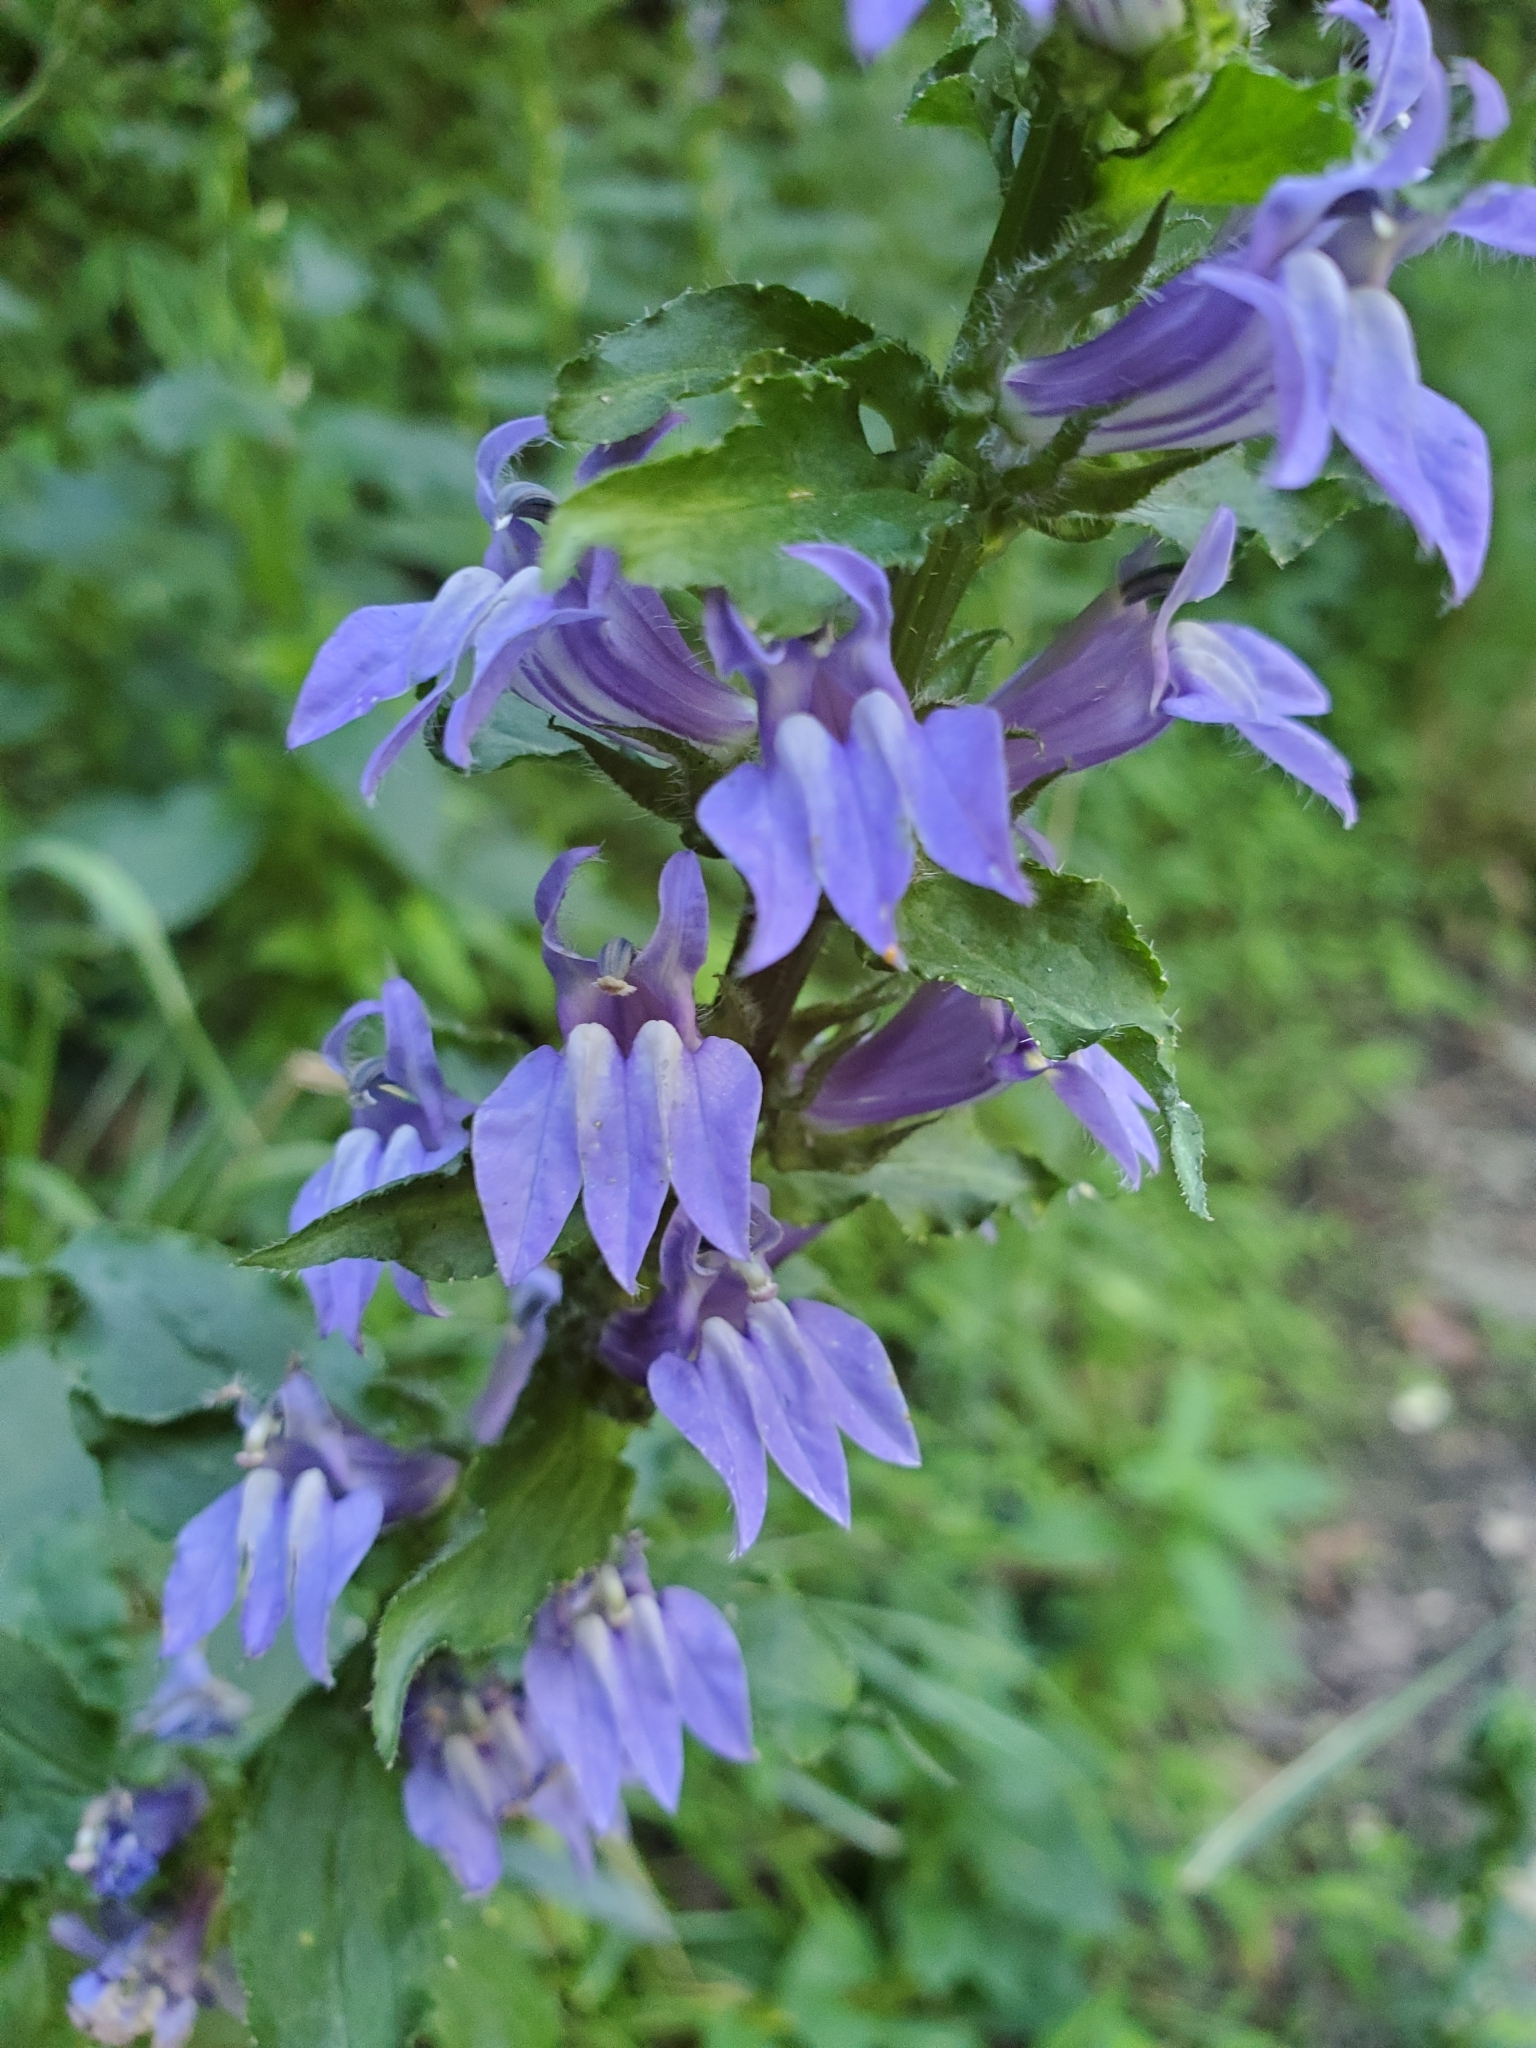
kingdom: Plantae
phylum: Tracheophyta
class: Magnoliopsida
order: Asterales
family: Campanulaceae
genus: Lobelia
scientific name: Lobelia siphilitica
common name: Great lobelia
